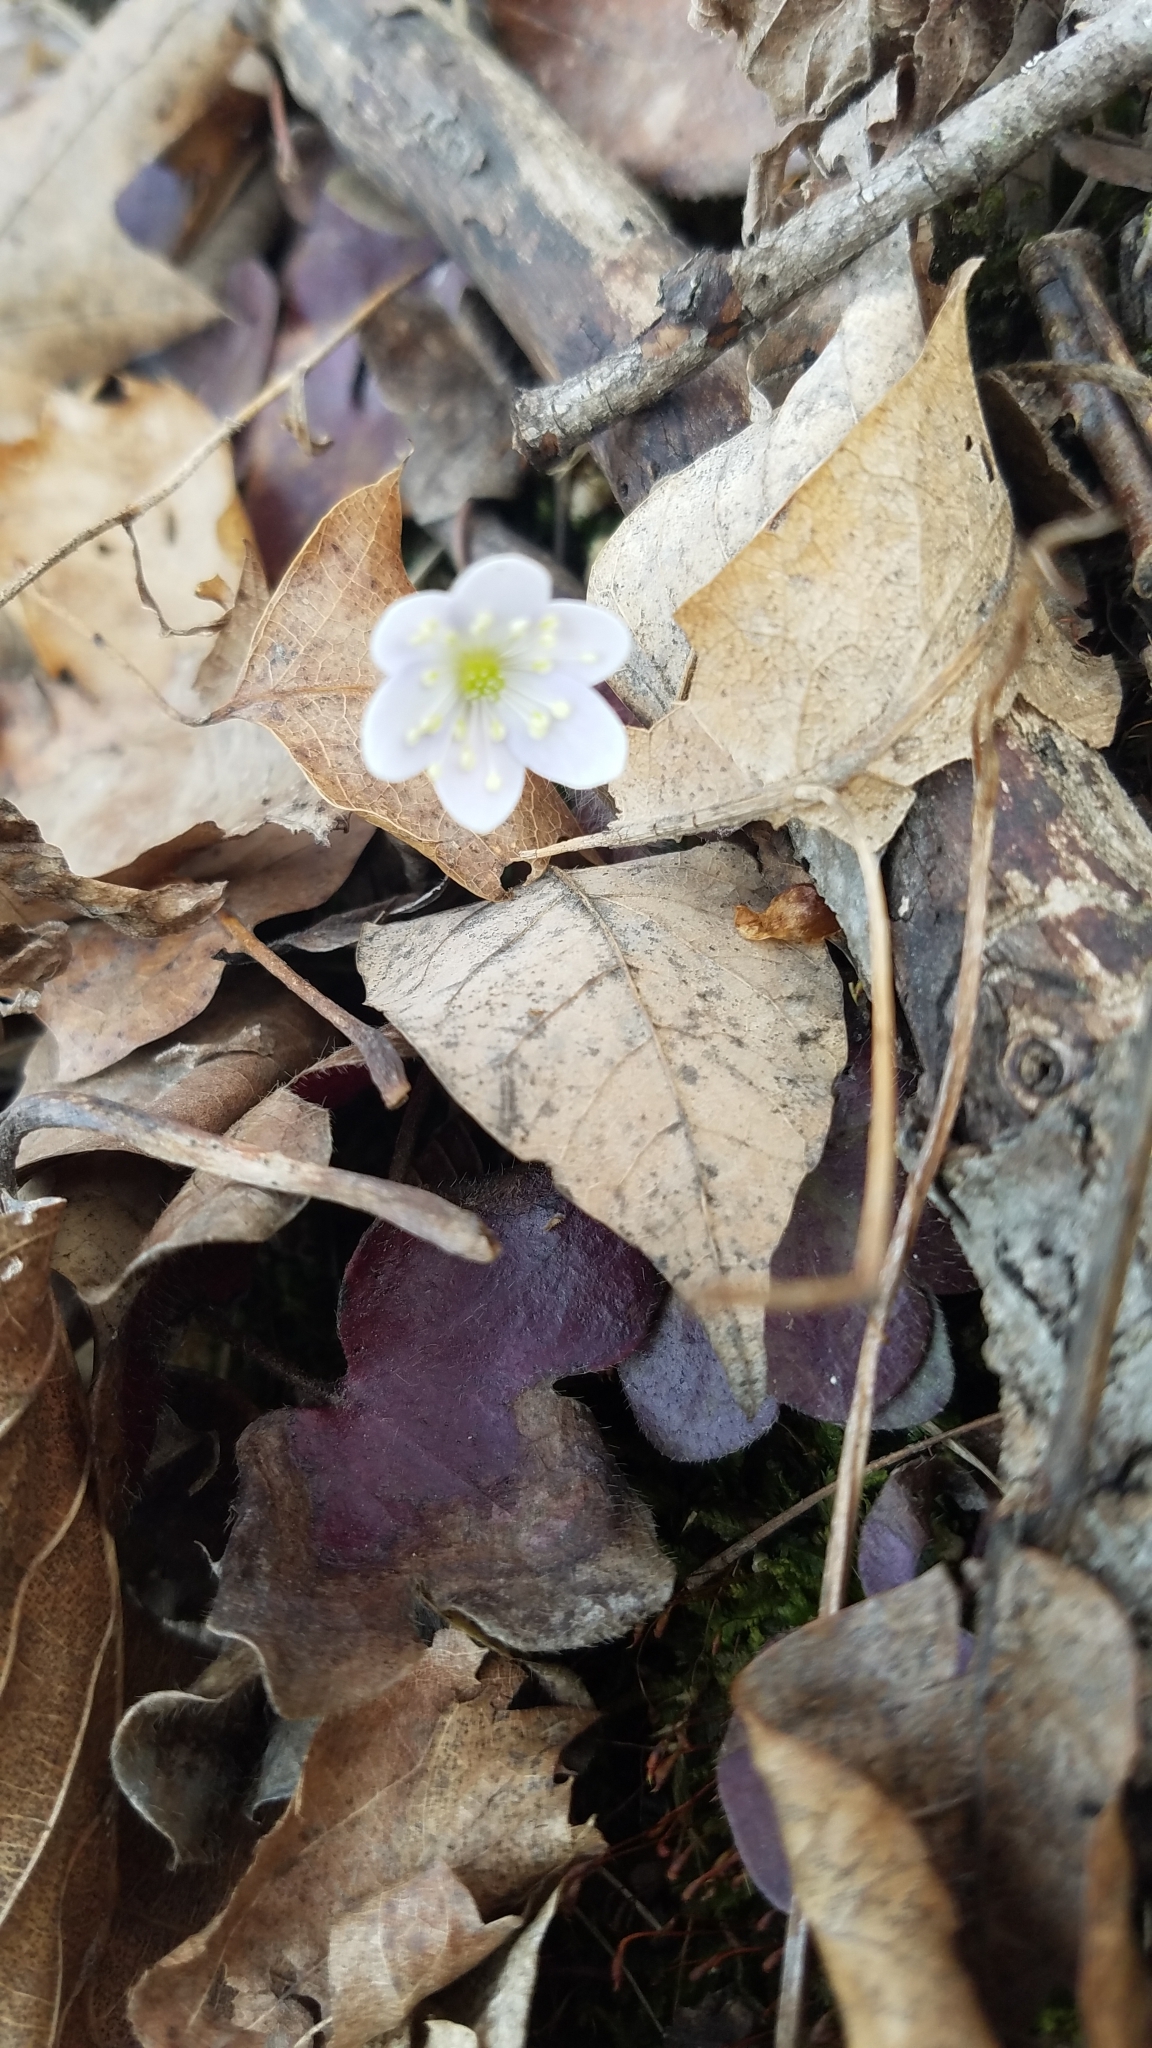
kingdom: Plantae
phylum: Tracheophyta
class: Magnoliopsida
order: Ranunculales
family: Ranunculaceae
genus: Hepatica
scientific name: Hepatica americana
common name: American hepatica
